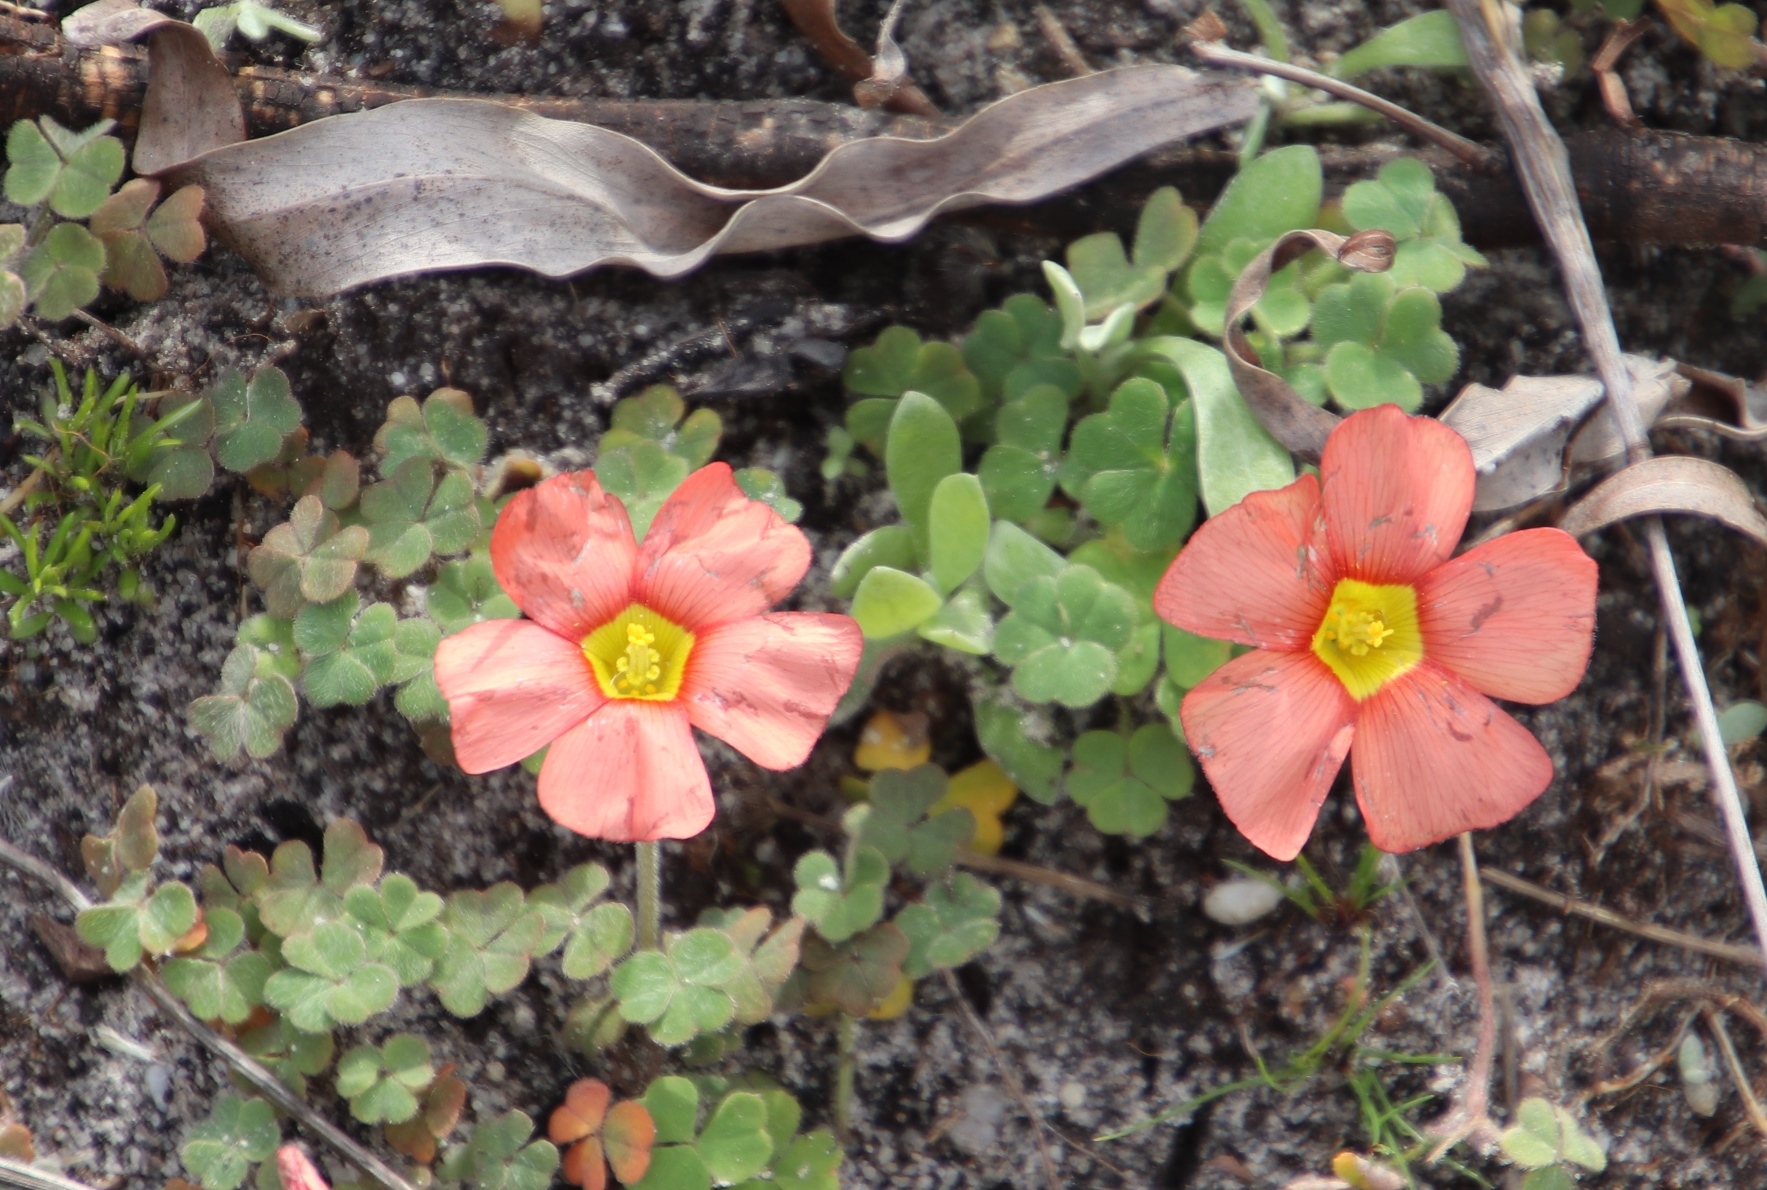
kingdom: Plantae
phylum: Tracheophyta
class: Magnoliopsida
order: Oxalidales
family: Oxalidaceae
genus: Oxalis
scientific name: Oxalis obtusa
